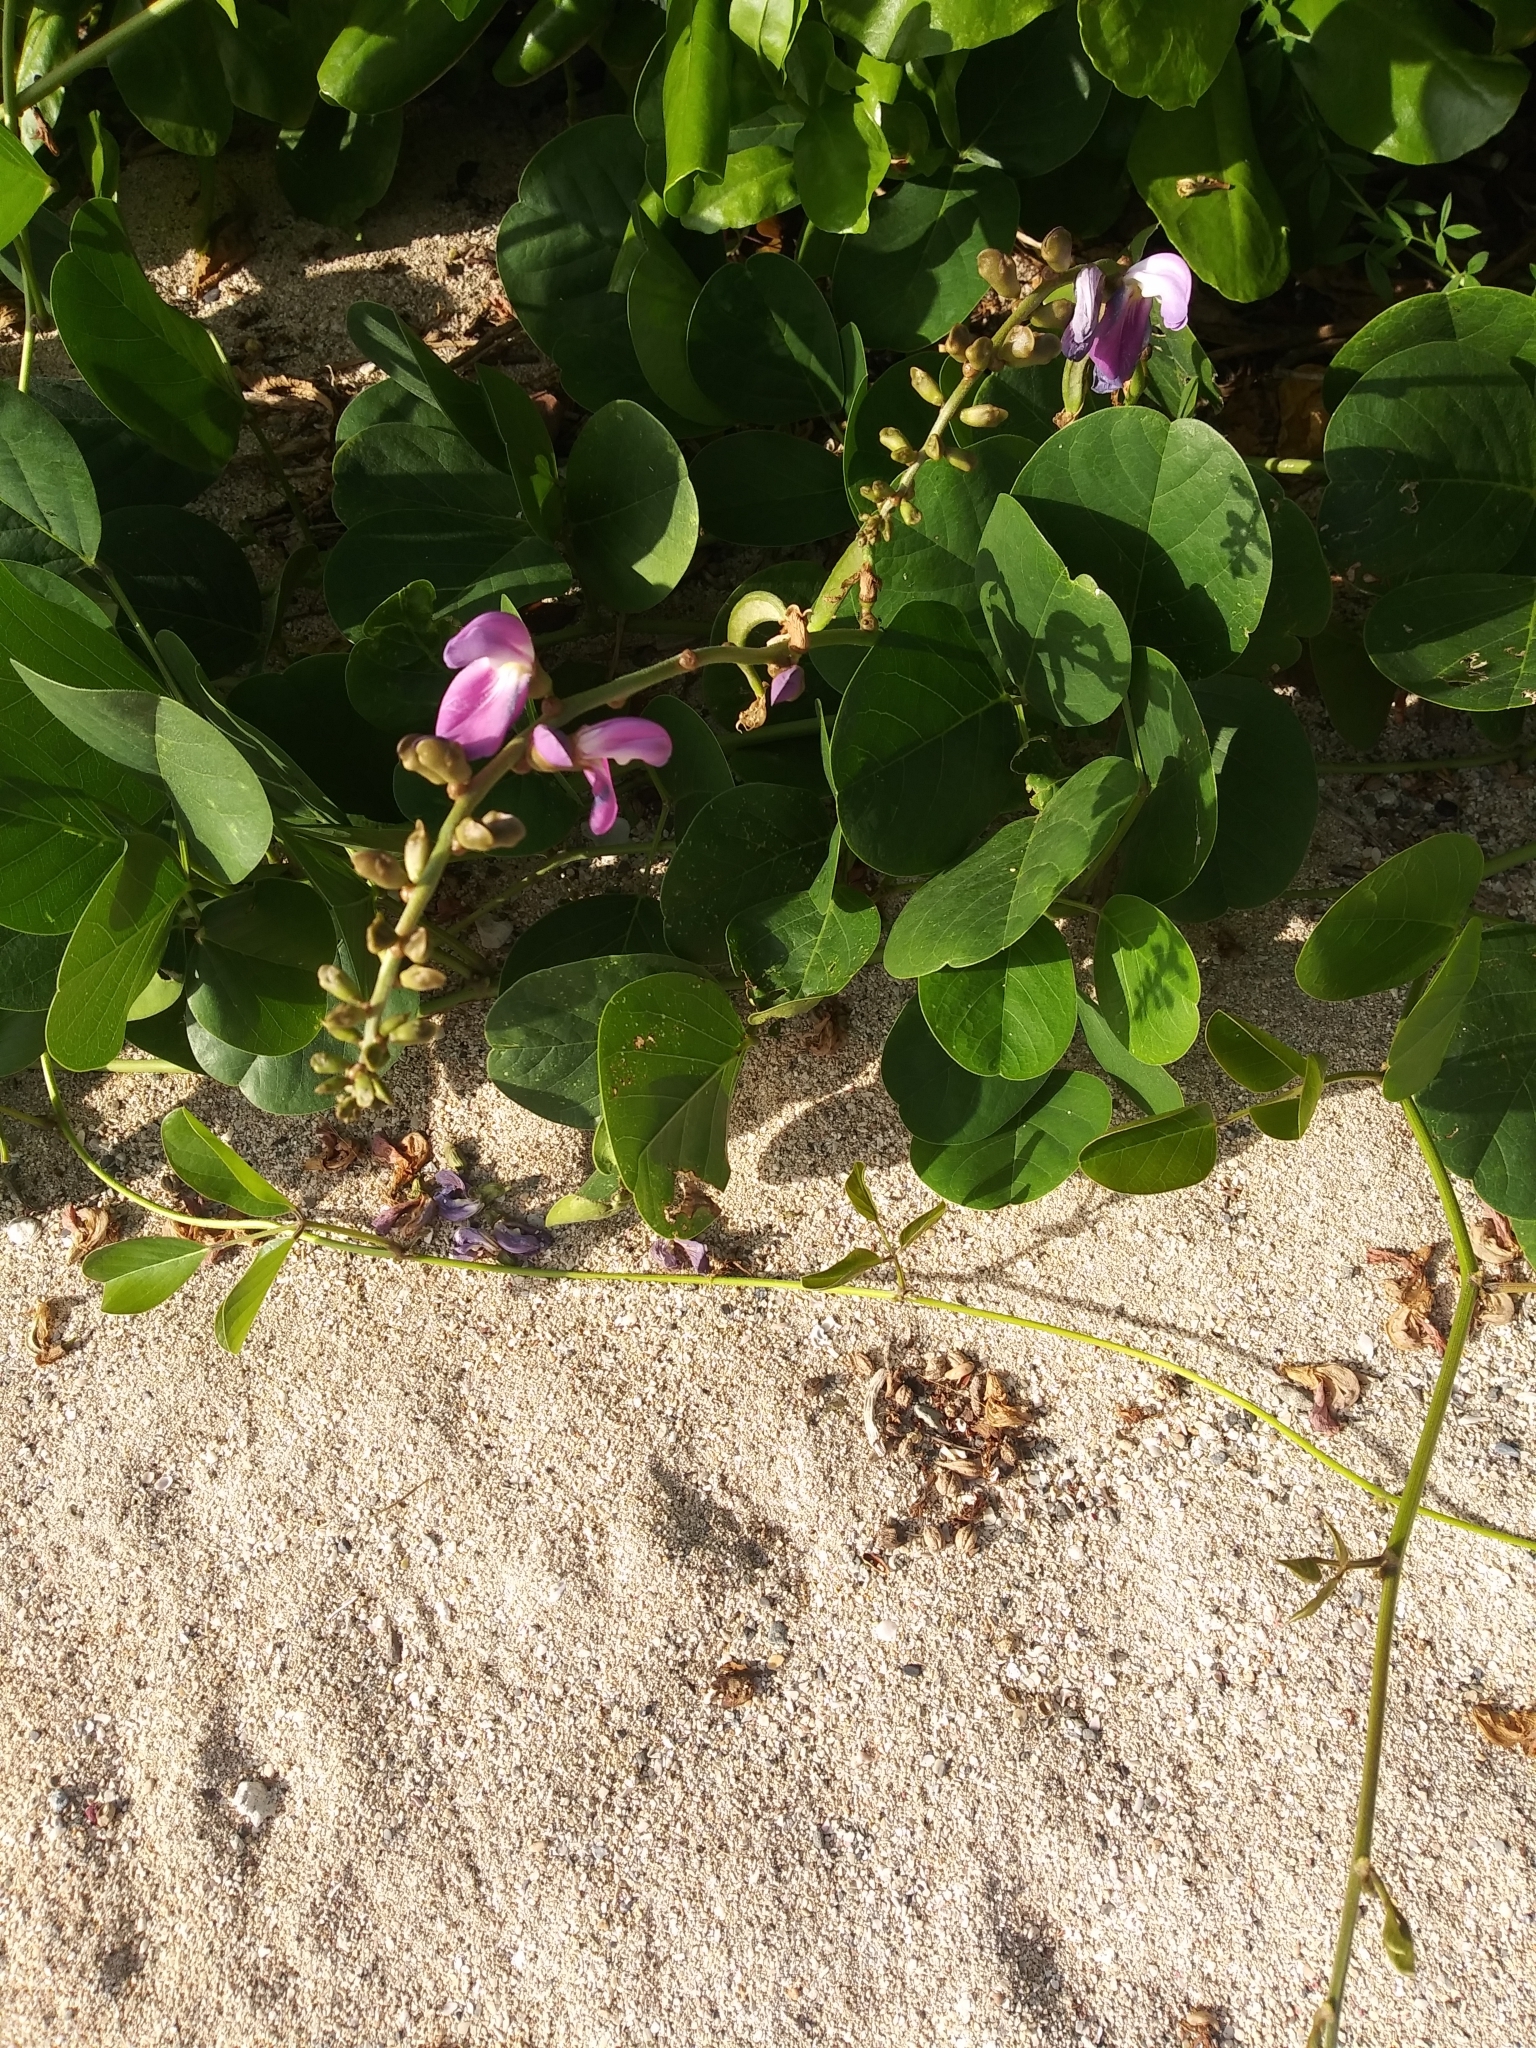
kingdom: Plantae
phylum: Tracheophyta
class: Magnoliopsida
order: Fabales
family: Fabaceae
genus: Canavalia
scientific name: Canavalia rosea
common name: Beach-bean
